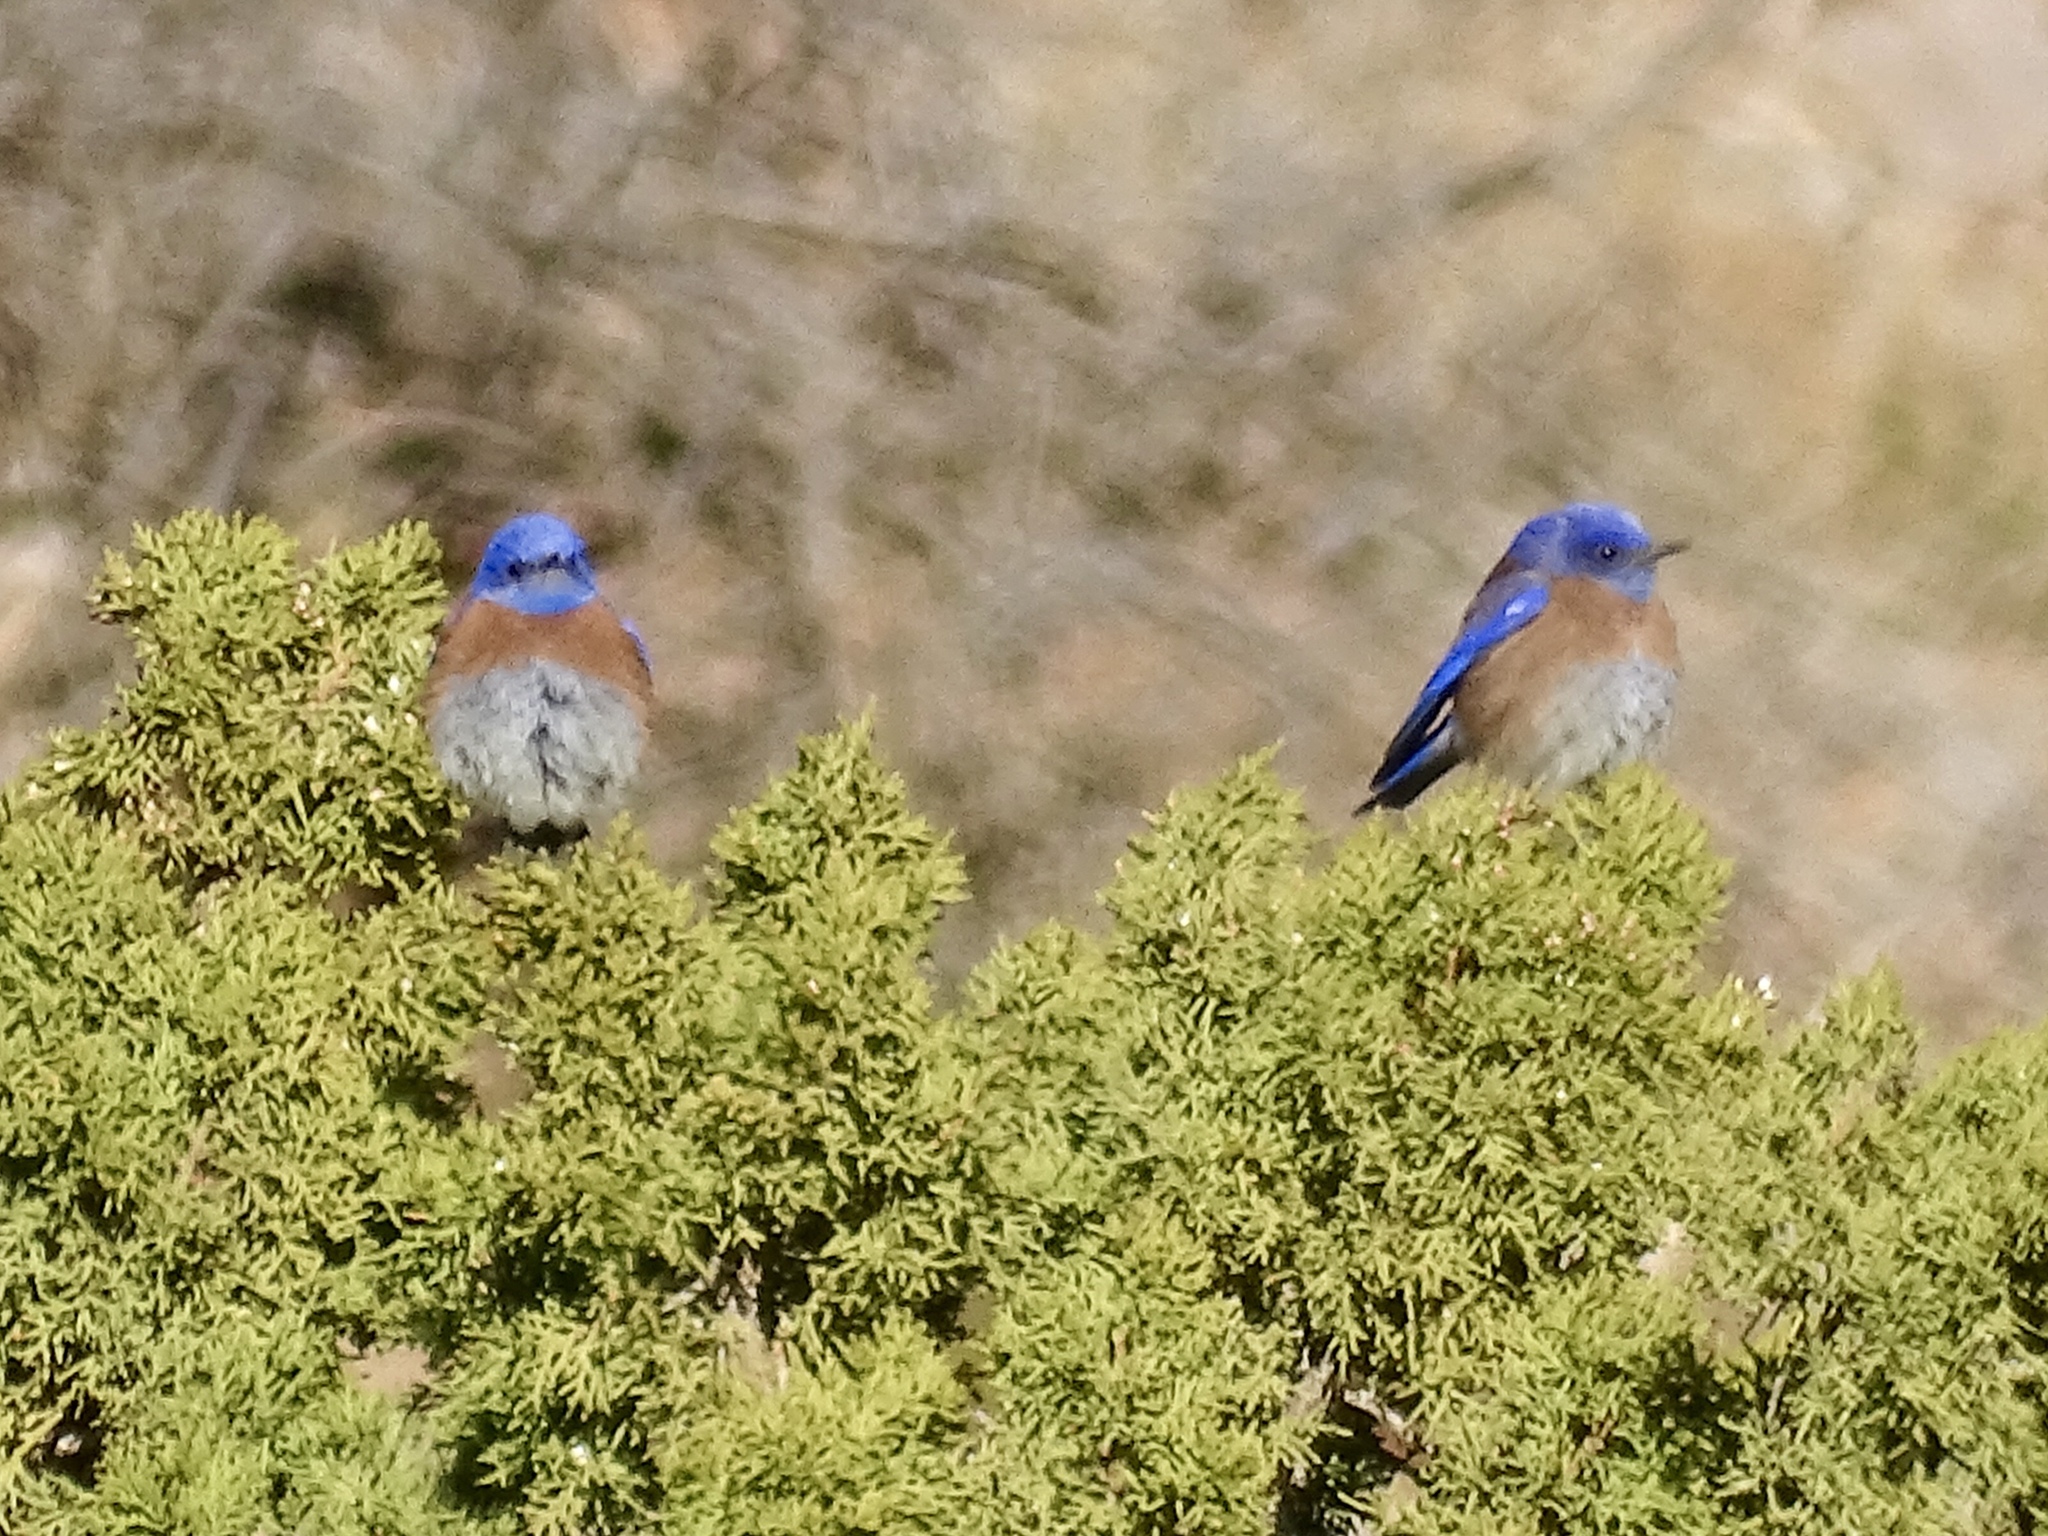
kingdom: Animalia
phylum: Chordata
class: Aves
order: Passeriformes
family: Turdidae
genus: Sialia
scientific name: Sialia mexicana
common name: Western bluebird
